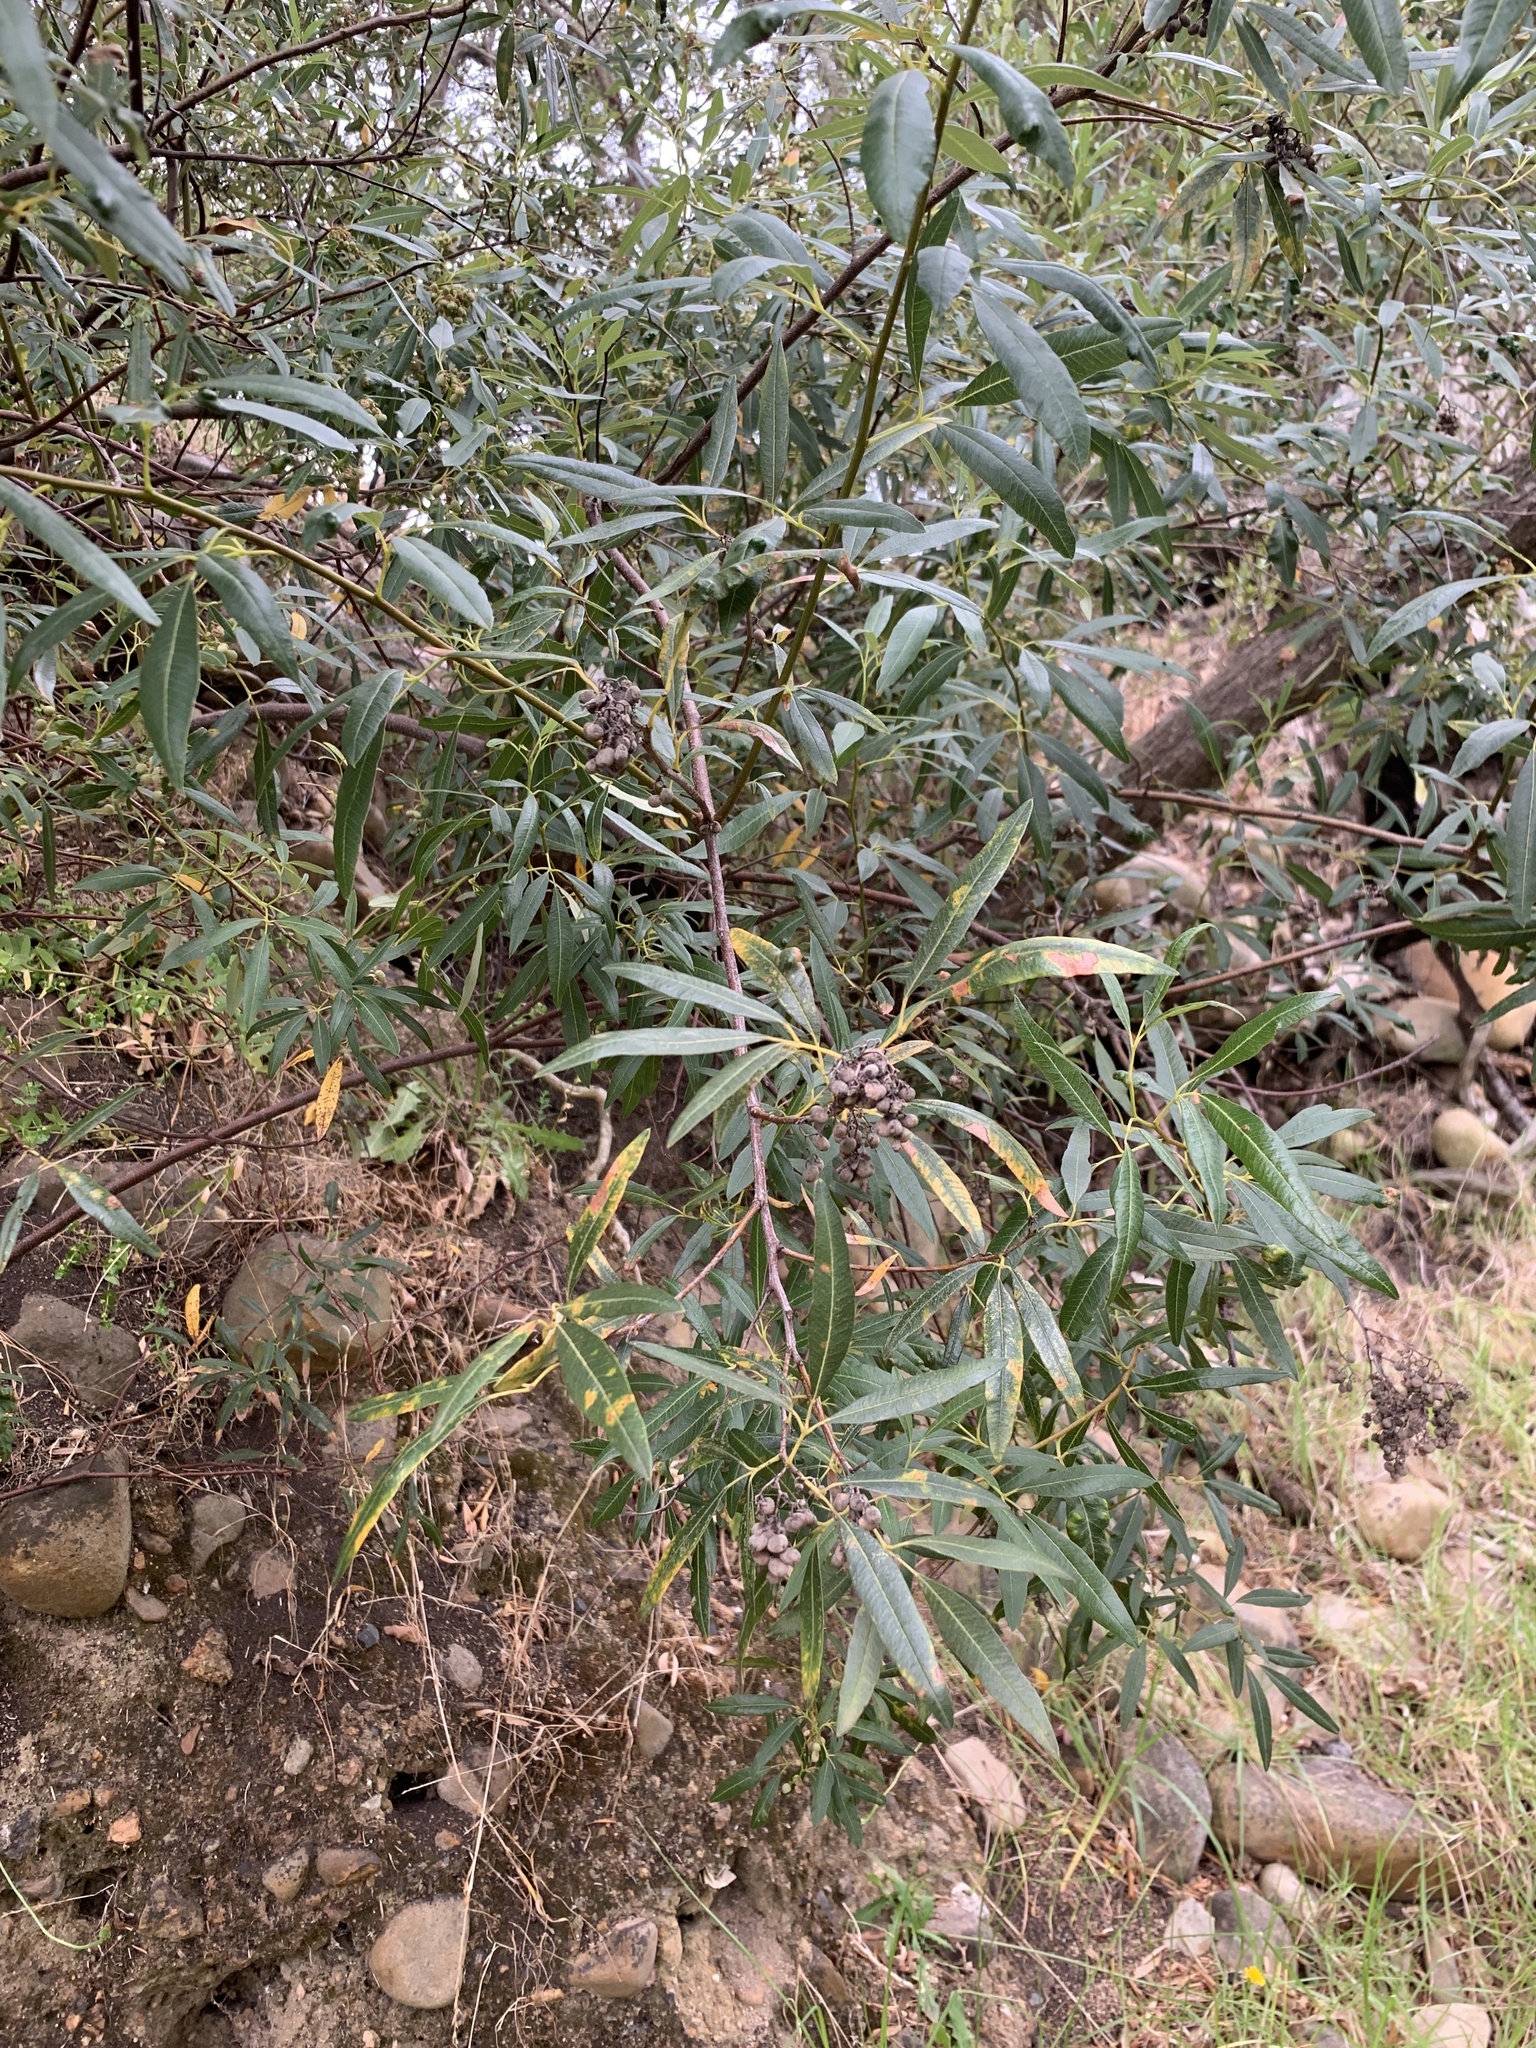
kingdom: Plantae
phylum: Tracheophyta
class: Magnoliopsida
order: Sapindales
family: Anacardiaceae
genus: Searsia
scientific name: Searsia angustifolia
